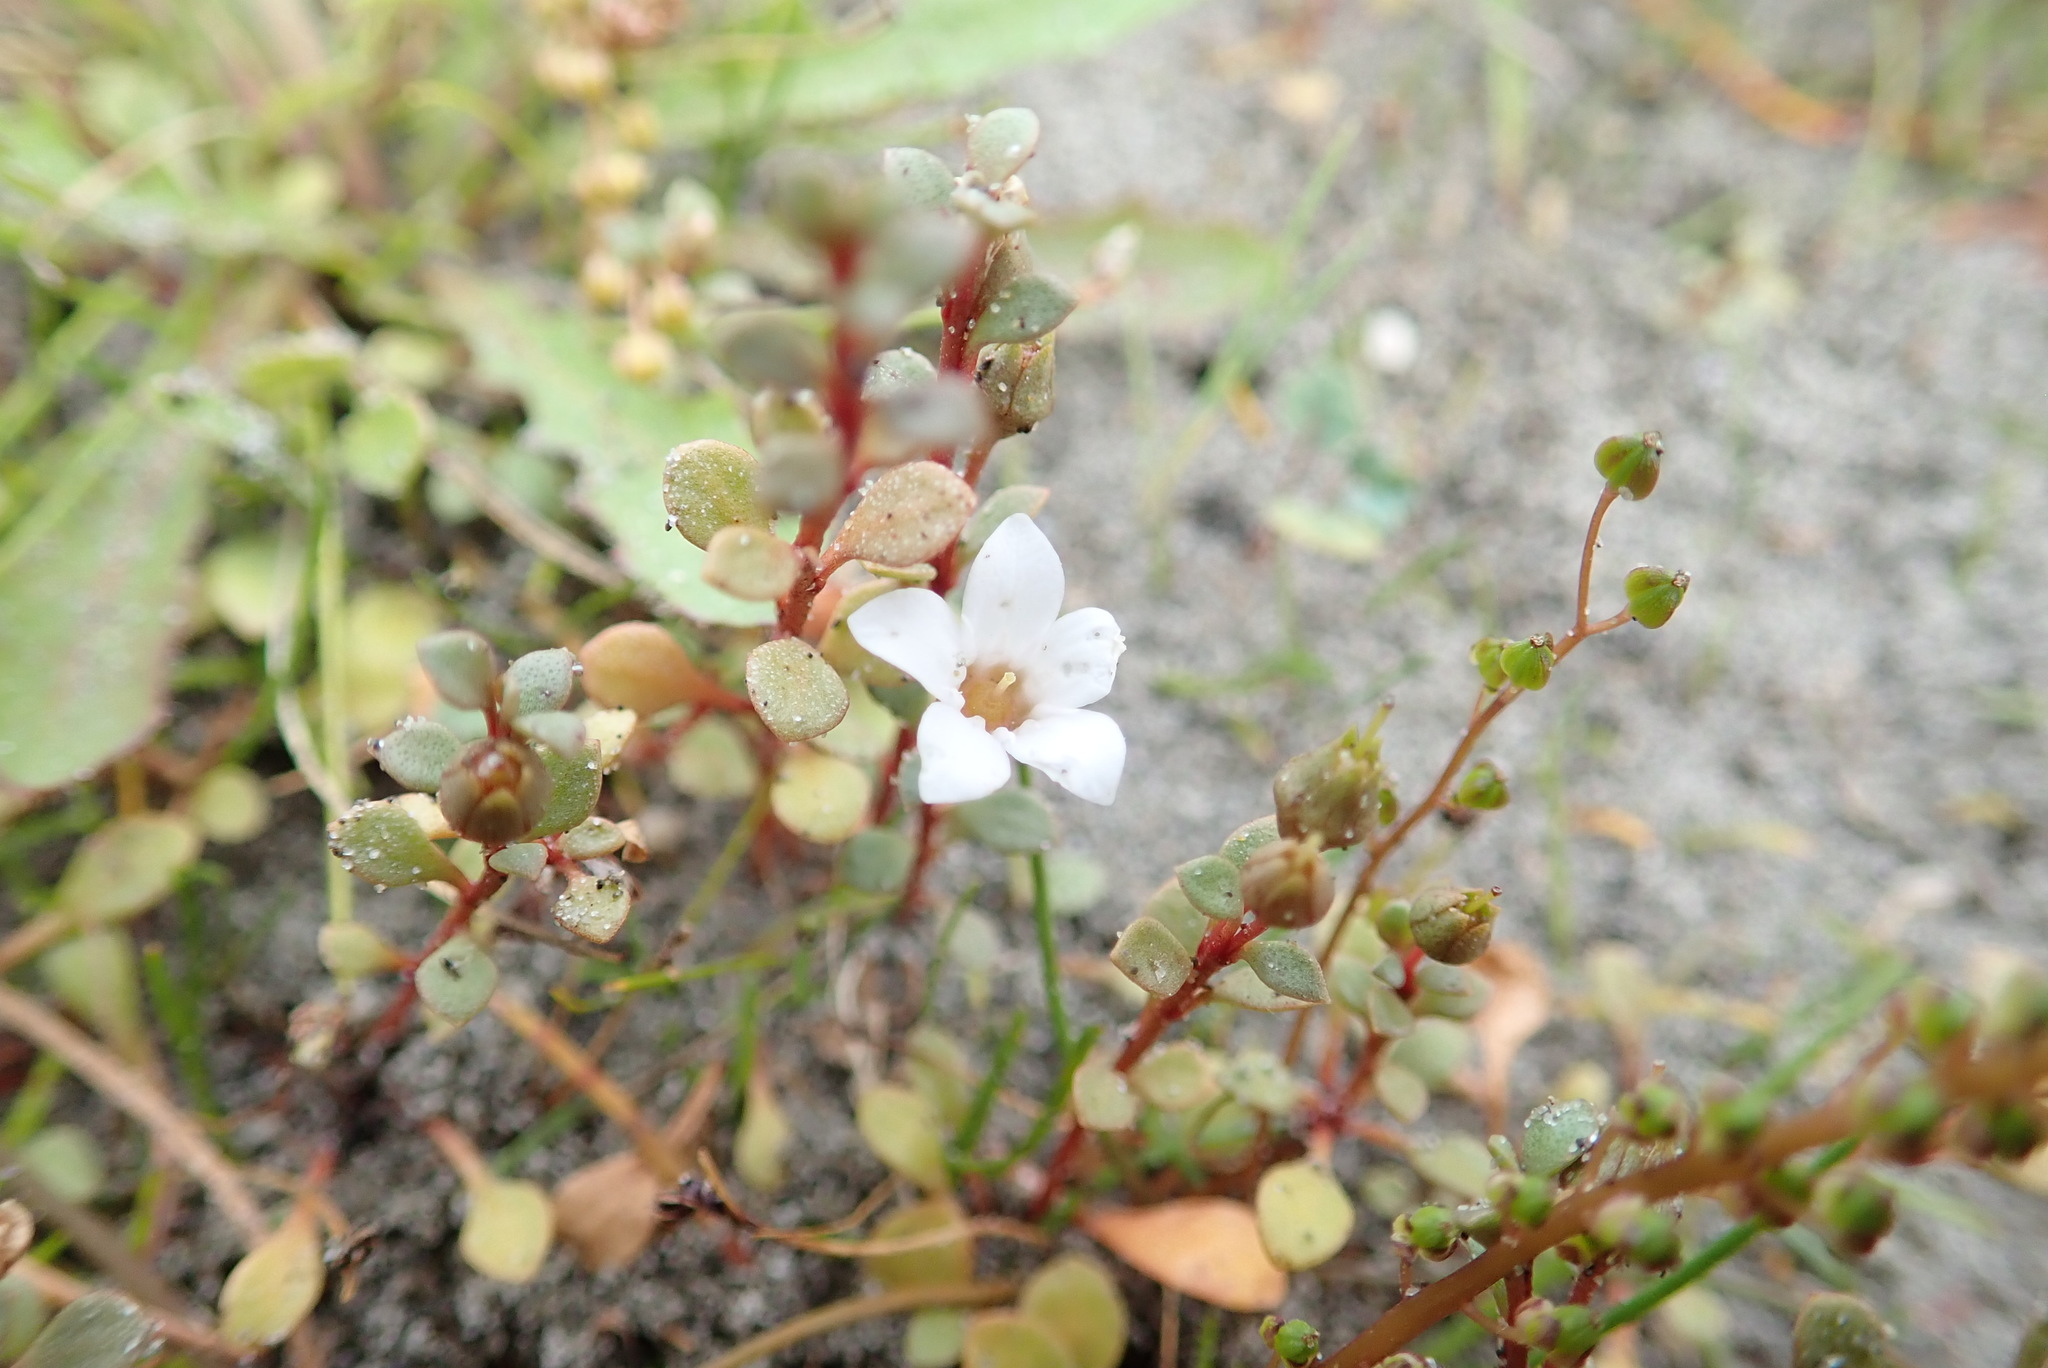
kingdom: Plantae
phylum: Tracheophyta
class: Magnoliopsida
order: Ericales
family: Primulaceae
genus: Samolus
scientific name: Samolus repens
